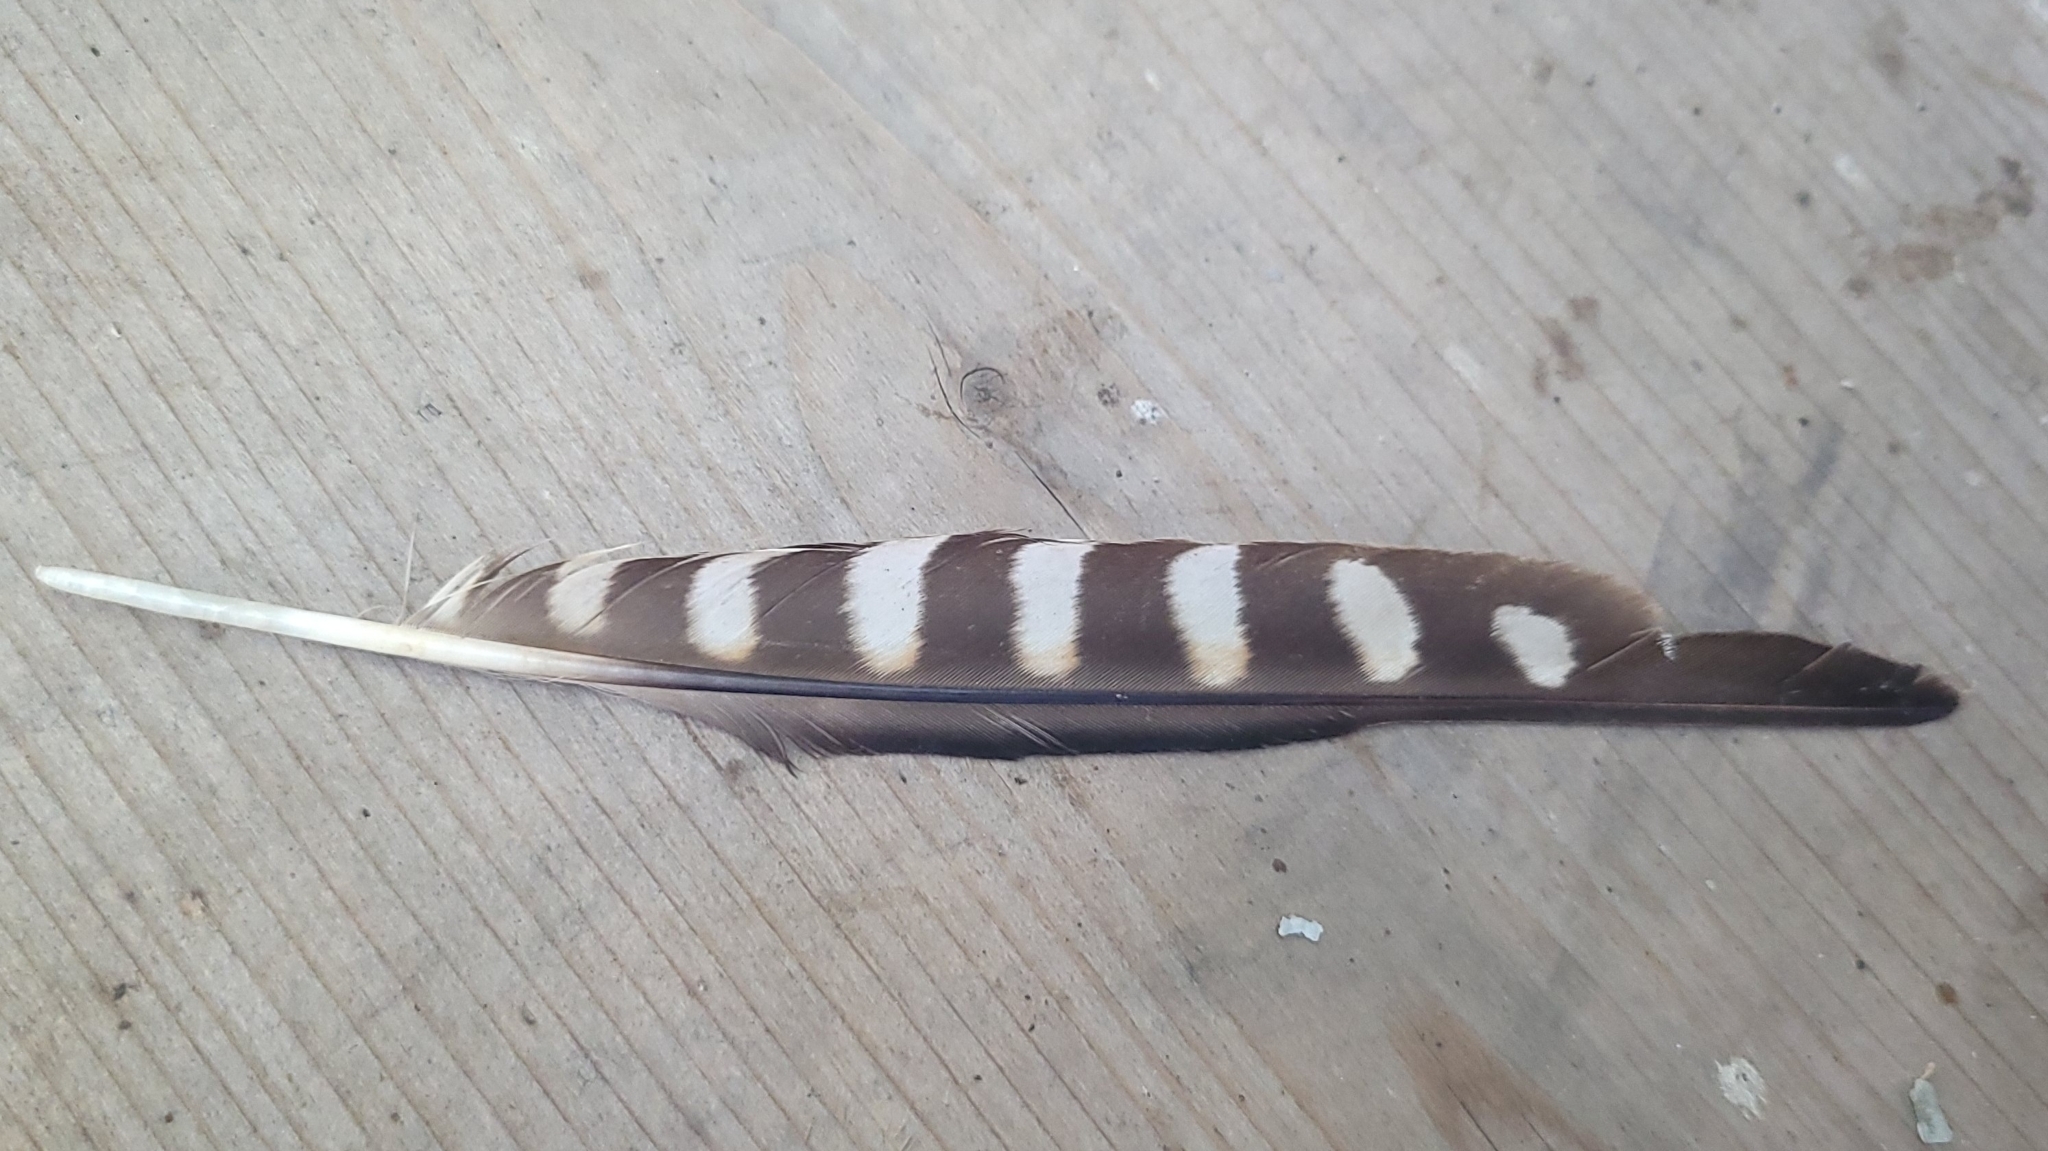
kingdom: Animalia
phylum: Chordata
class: Aves
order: Falconiformes
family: Falconidae
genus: Falco
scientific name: Falco sparverius
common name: American kestrel
